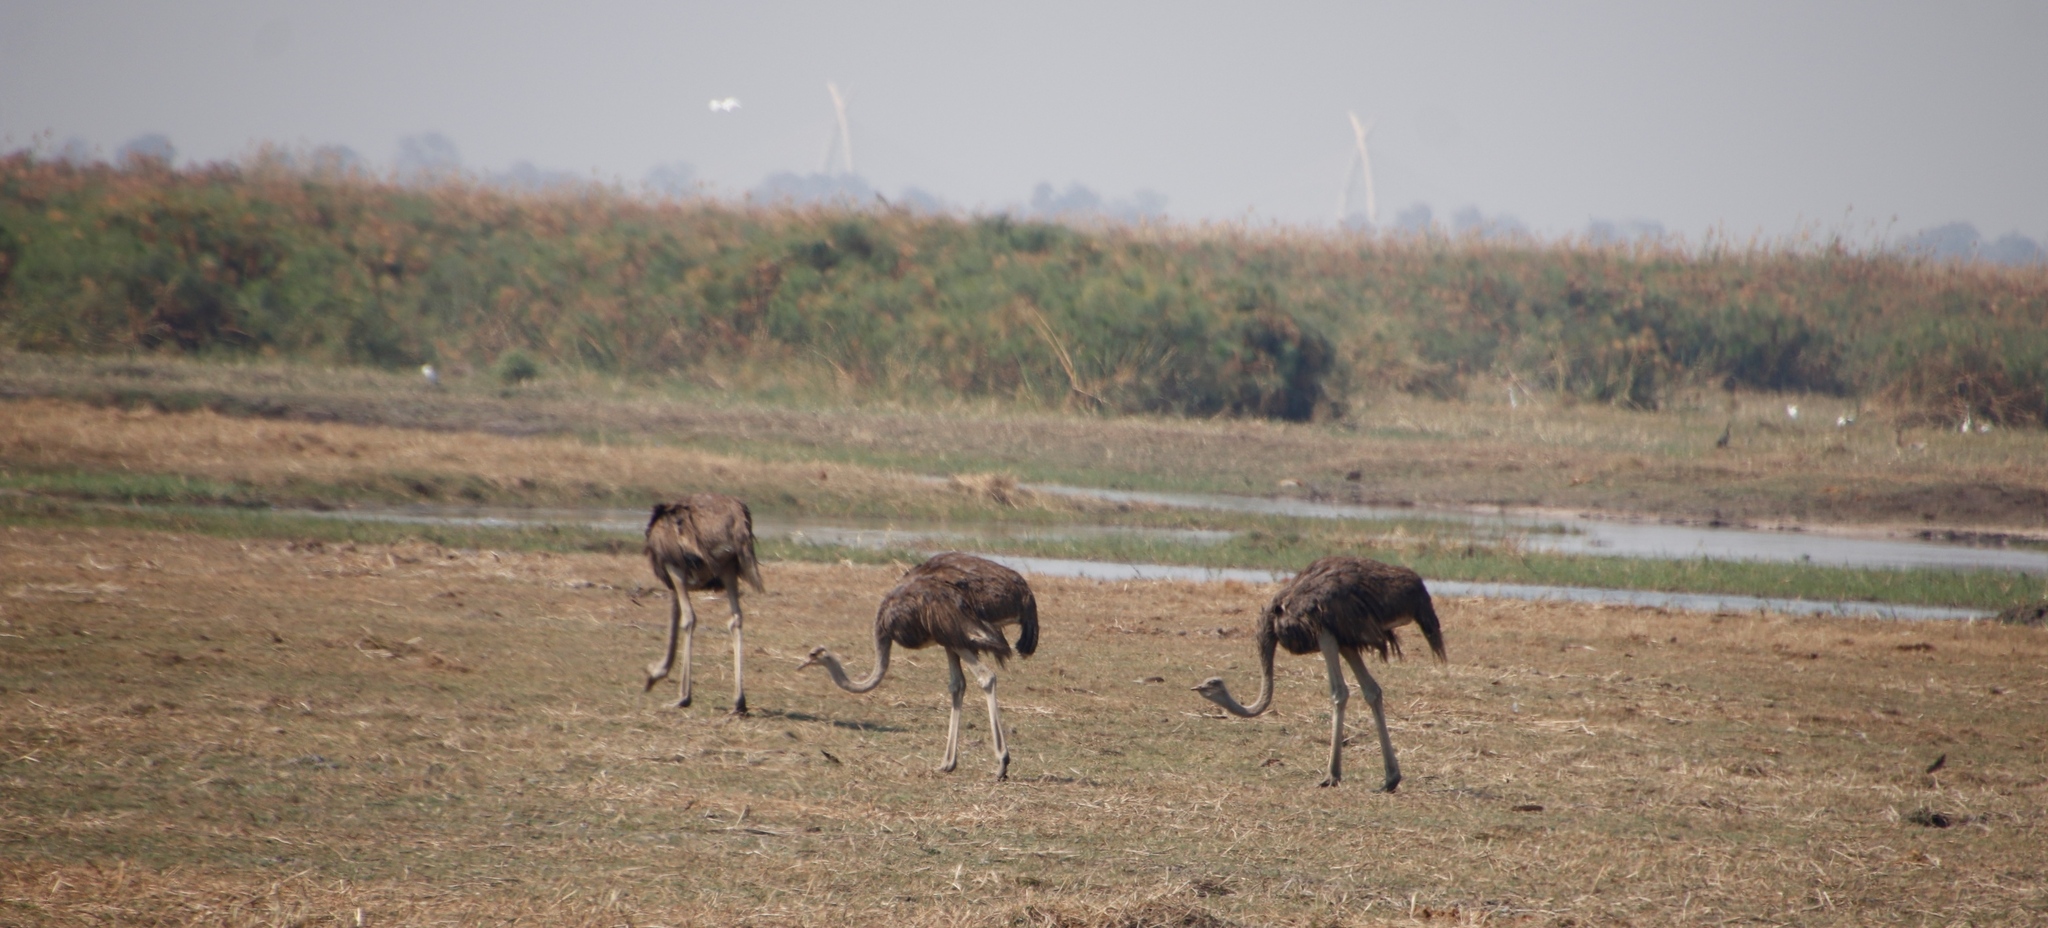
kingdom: Animalia
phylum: Chordata
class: Aves
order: Struthioniformes
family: Struthionidae
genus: Struthio
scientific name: Struthio camelus
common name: Common ostrich
